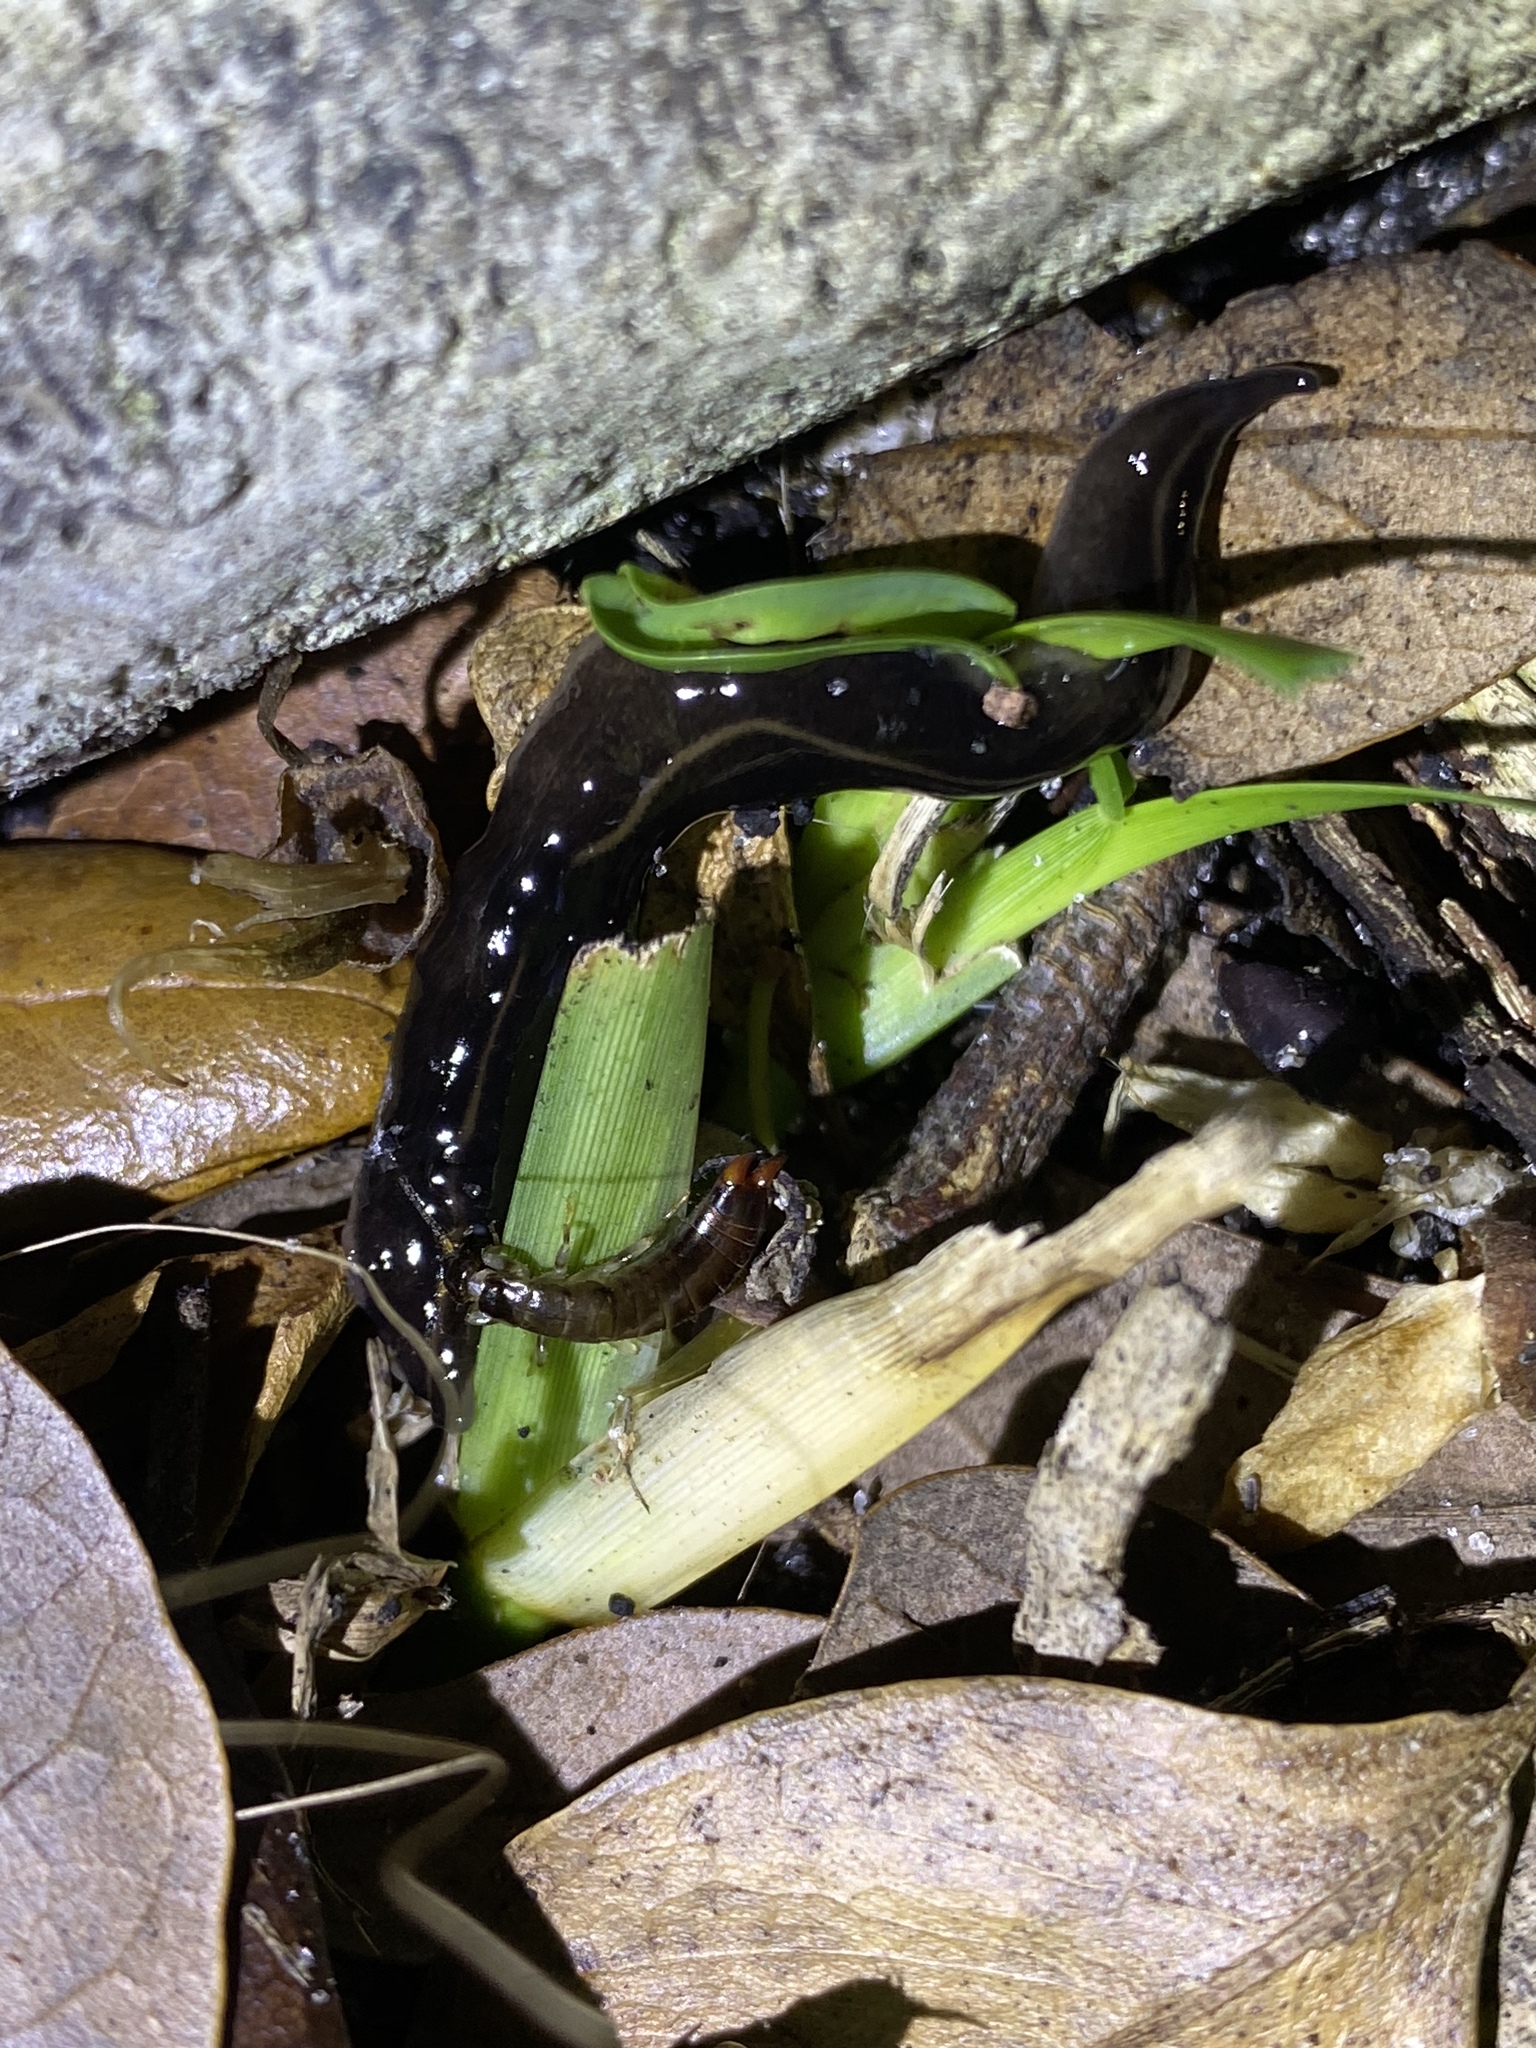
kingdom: Animalia
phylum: Platyhelminthes
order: Tricladida
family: Geoplanidae
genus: Platydemus
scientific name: Platydemus manokwari
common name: New guinea flatworm
